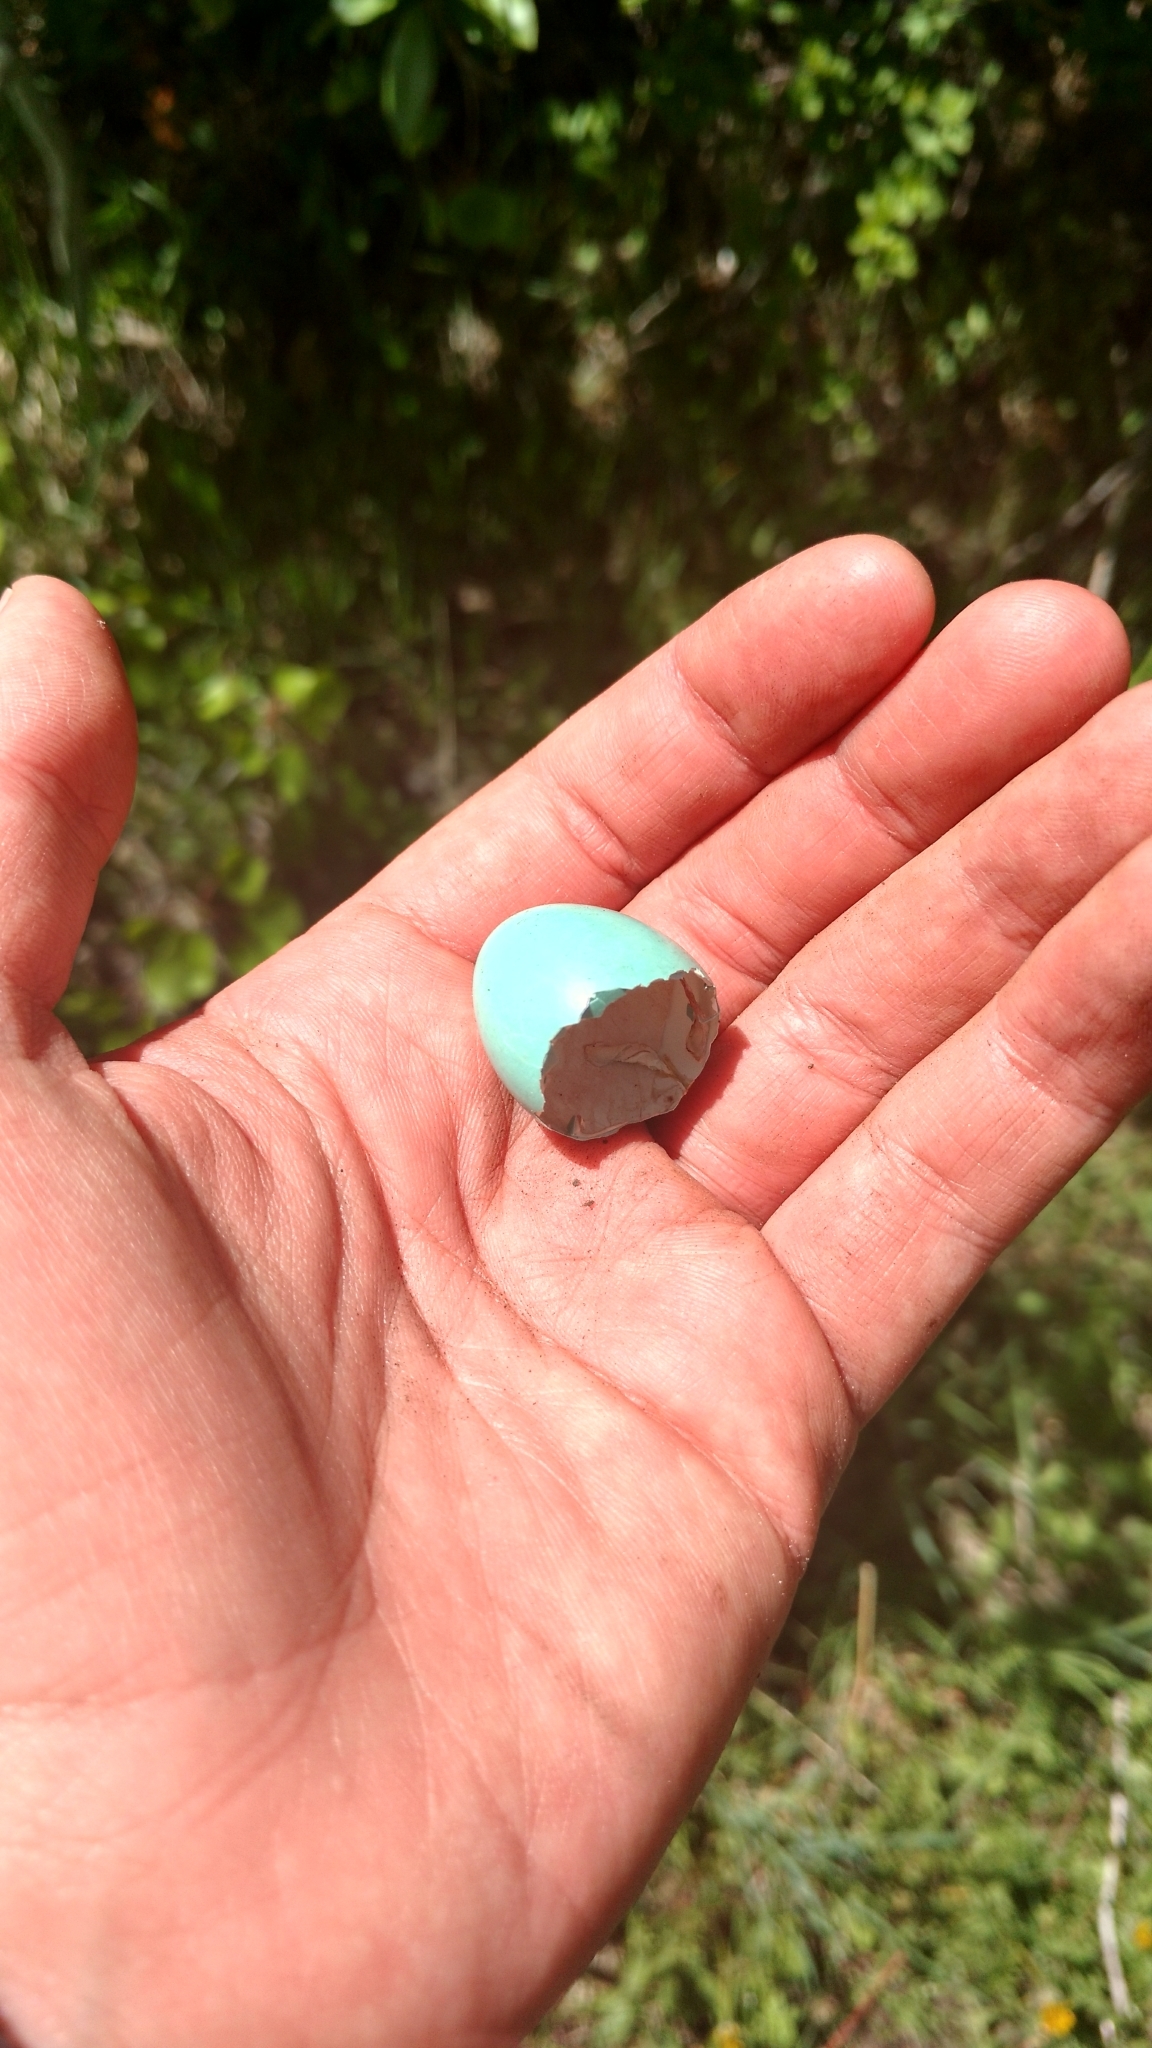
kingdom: Animalia
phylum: Chordata
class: Aves
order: Passeriformes
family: Turdidae
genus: Turdus
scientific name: Turdus migratorius
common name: American robin
